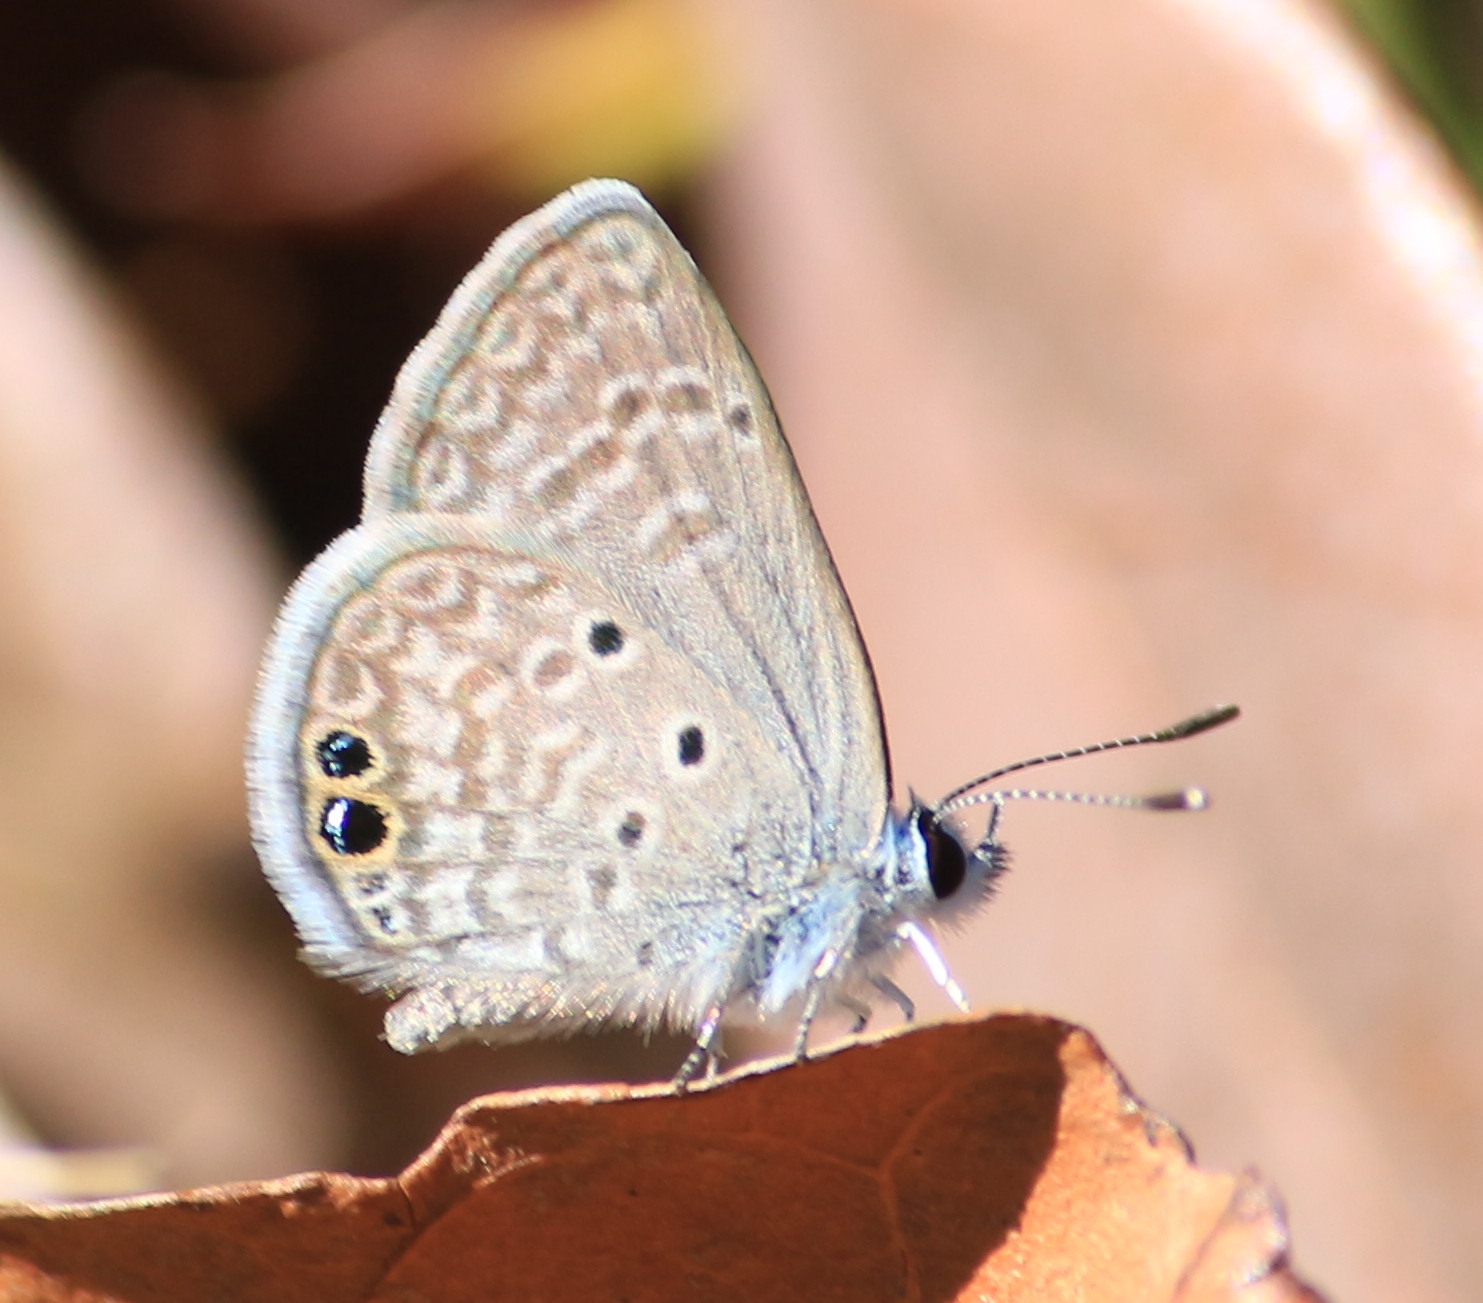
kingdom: Animalia
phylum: Arthropoda
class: Insecta
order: Lepidoptera
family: Lycaenidae
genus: Hemiargus
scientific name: Hemiargus ceraunus
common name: Ceraunus blue
